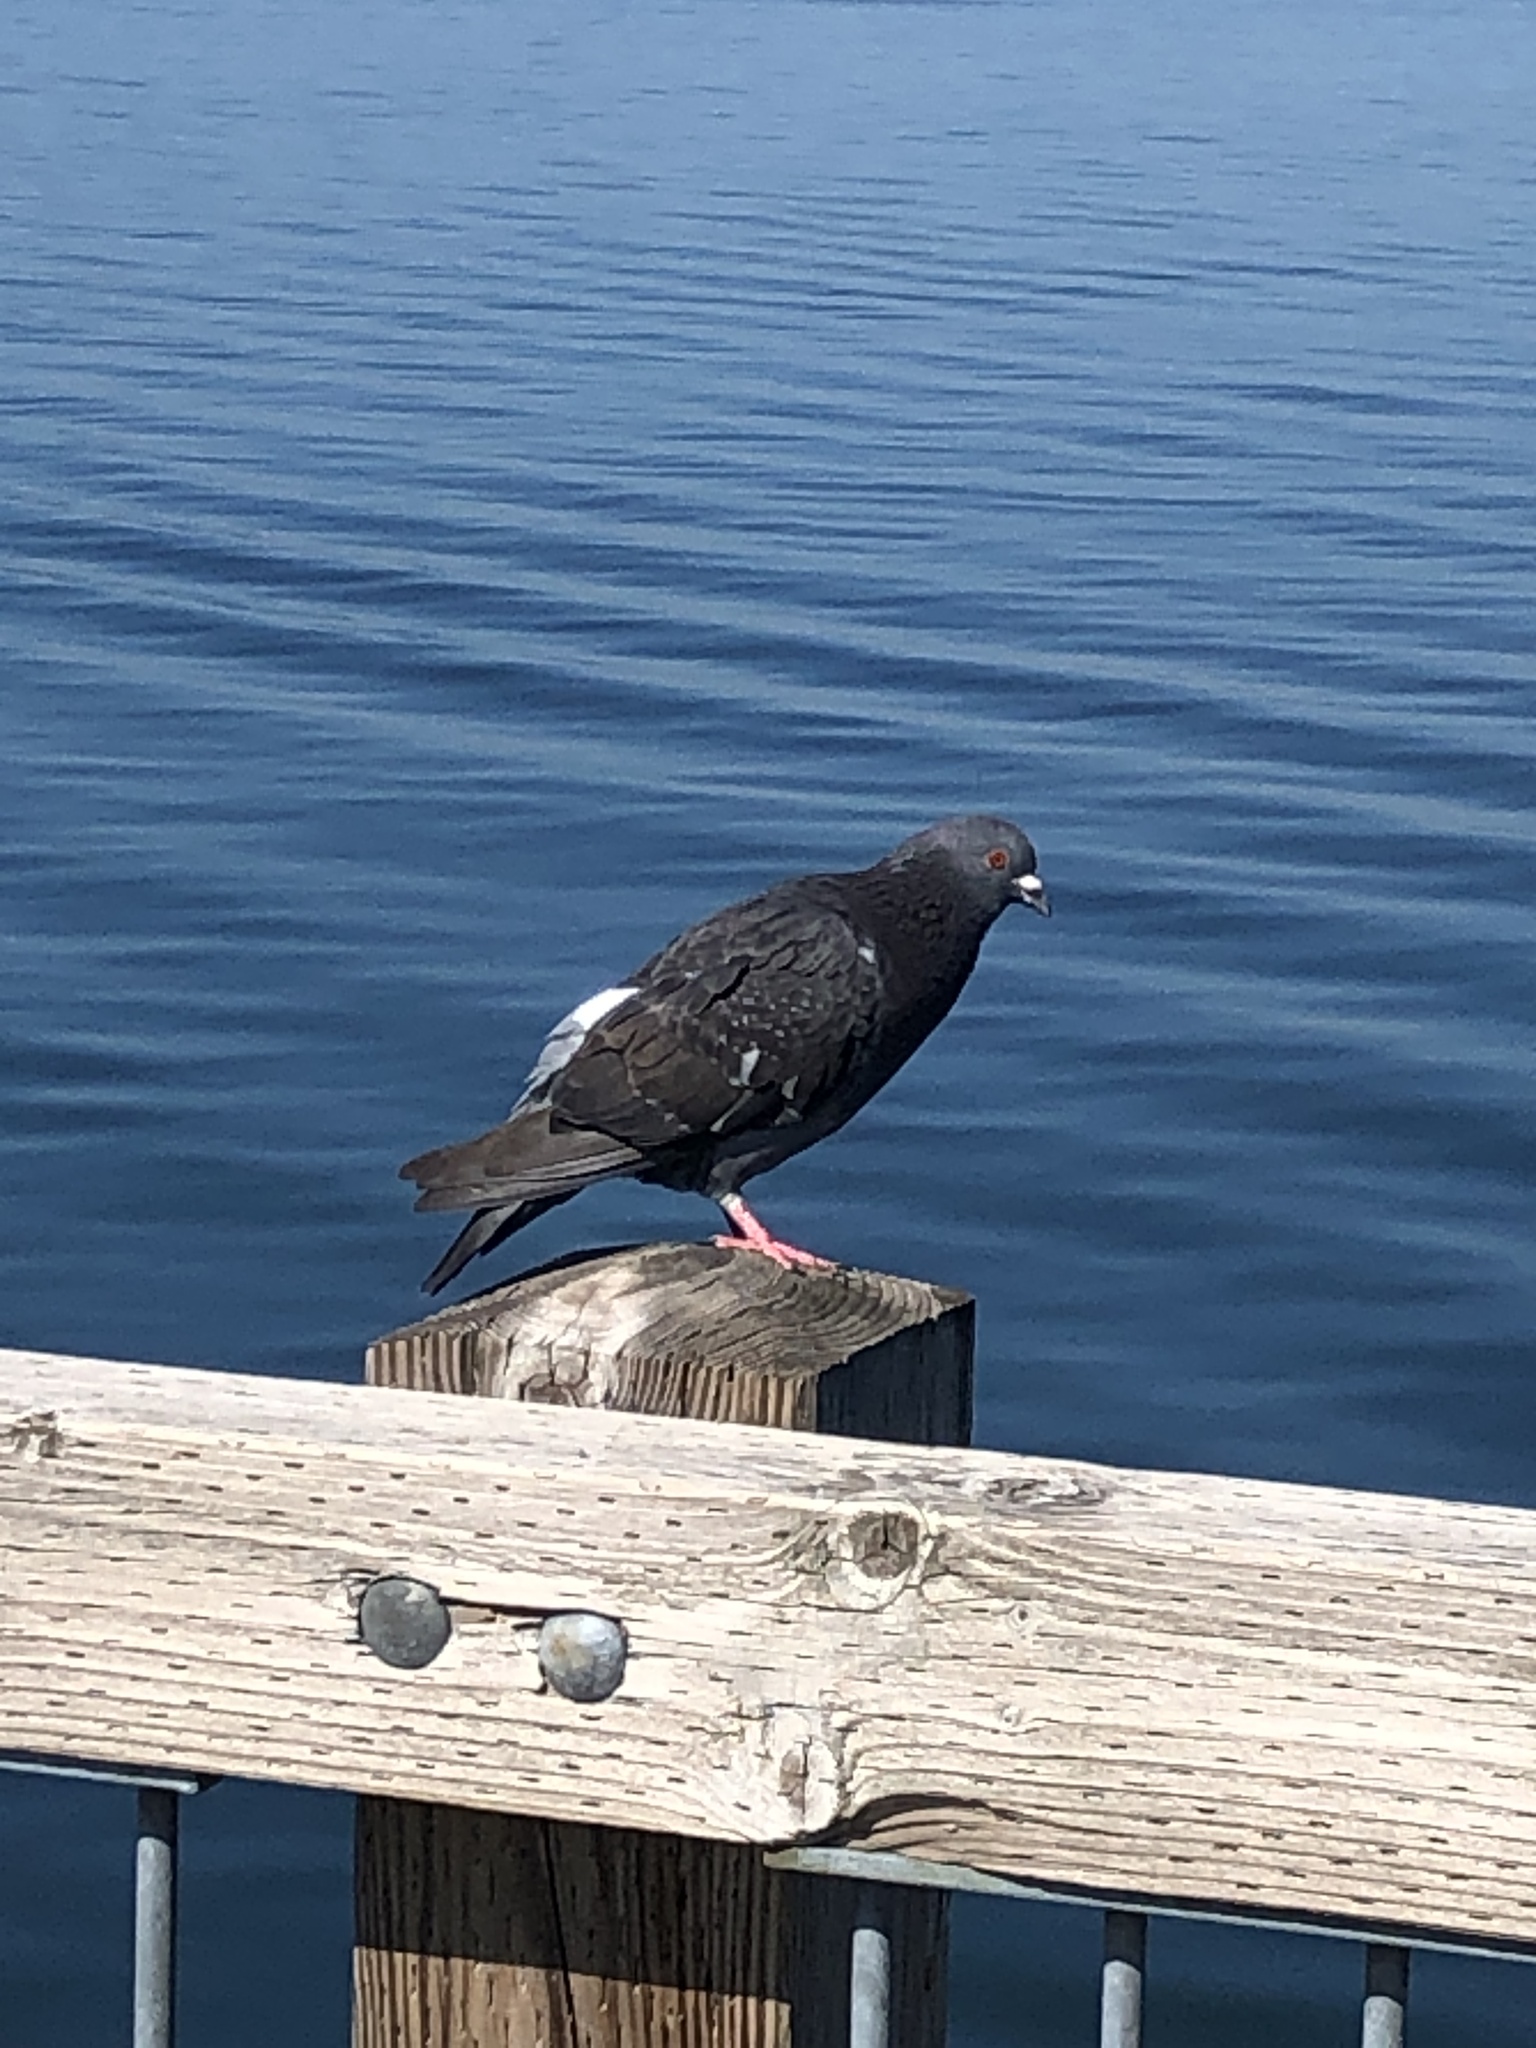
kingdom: Animalia
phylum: Chordata
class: Aves
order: Columbiformes
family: Columbidae
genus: Columba
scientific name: Columba livia
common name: Rock pigeon
